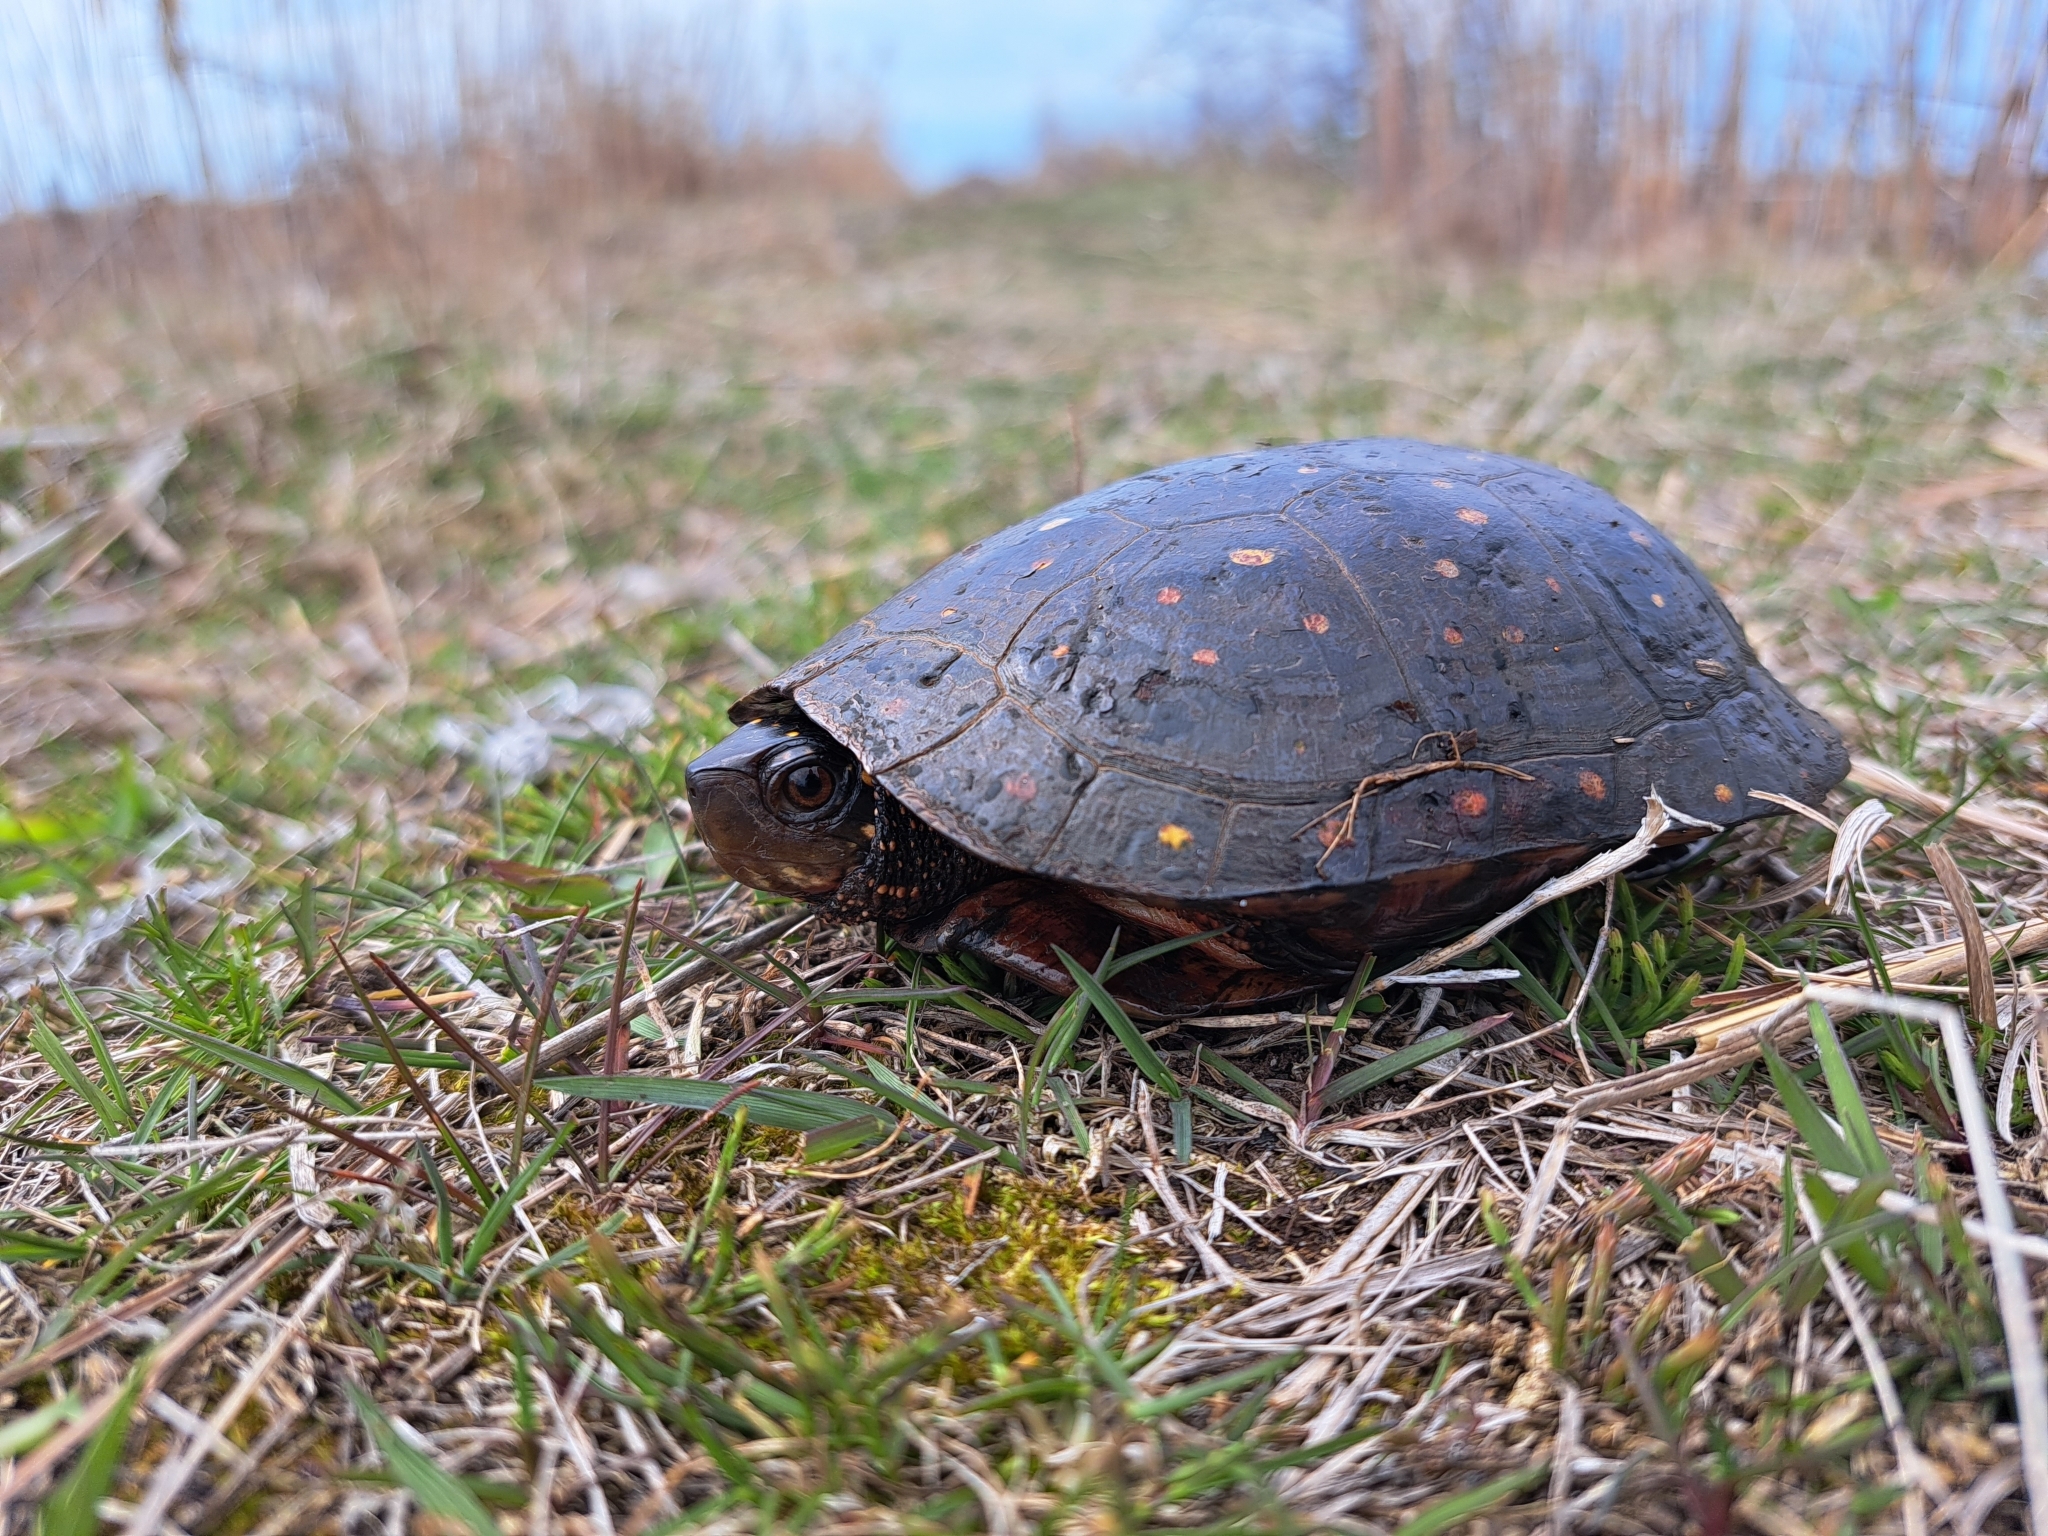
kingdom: Animalia
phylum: Chordata
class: Testudines
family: Emydidae
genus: Clemmys
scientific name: Clemmys guttata
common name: Spotted turtle
